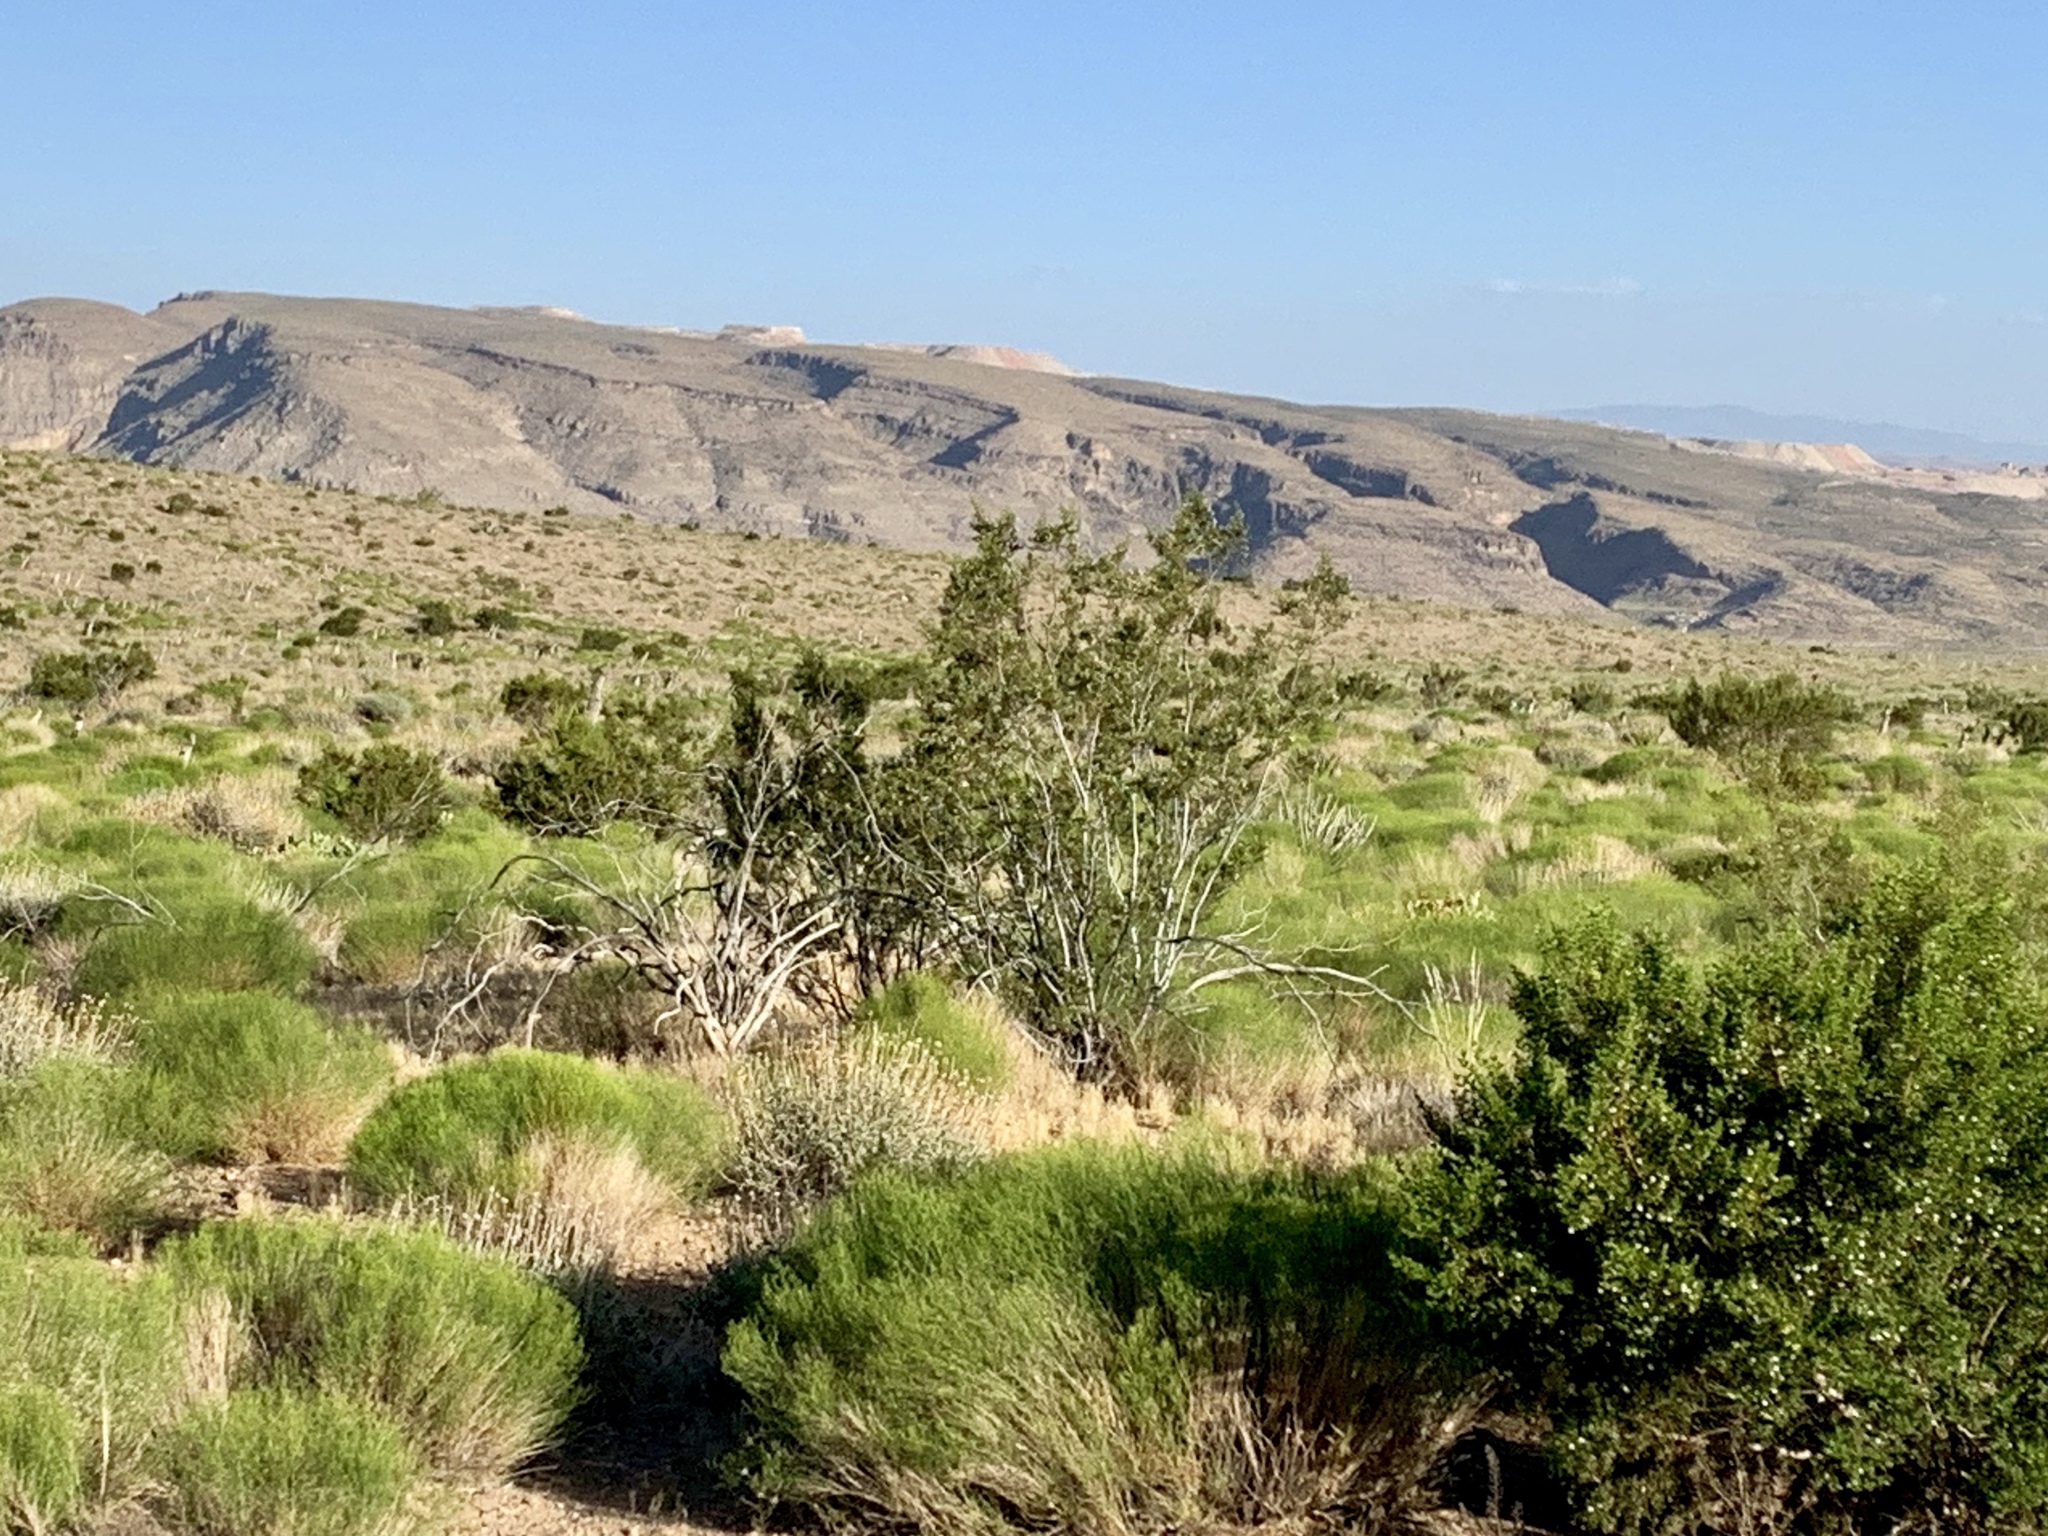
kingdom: Plantae
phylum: Tracheophyta
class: Magnoliopsida
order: Zygophyllales
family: Zygophyllaceae
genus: Larrea
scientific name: Larrea tridentata
